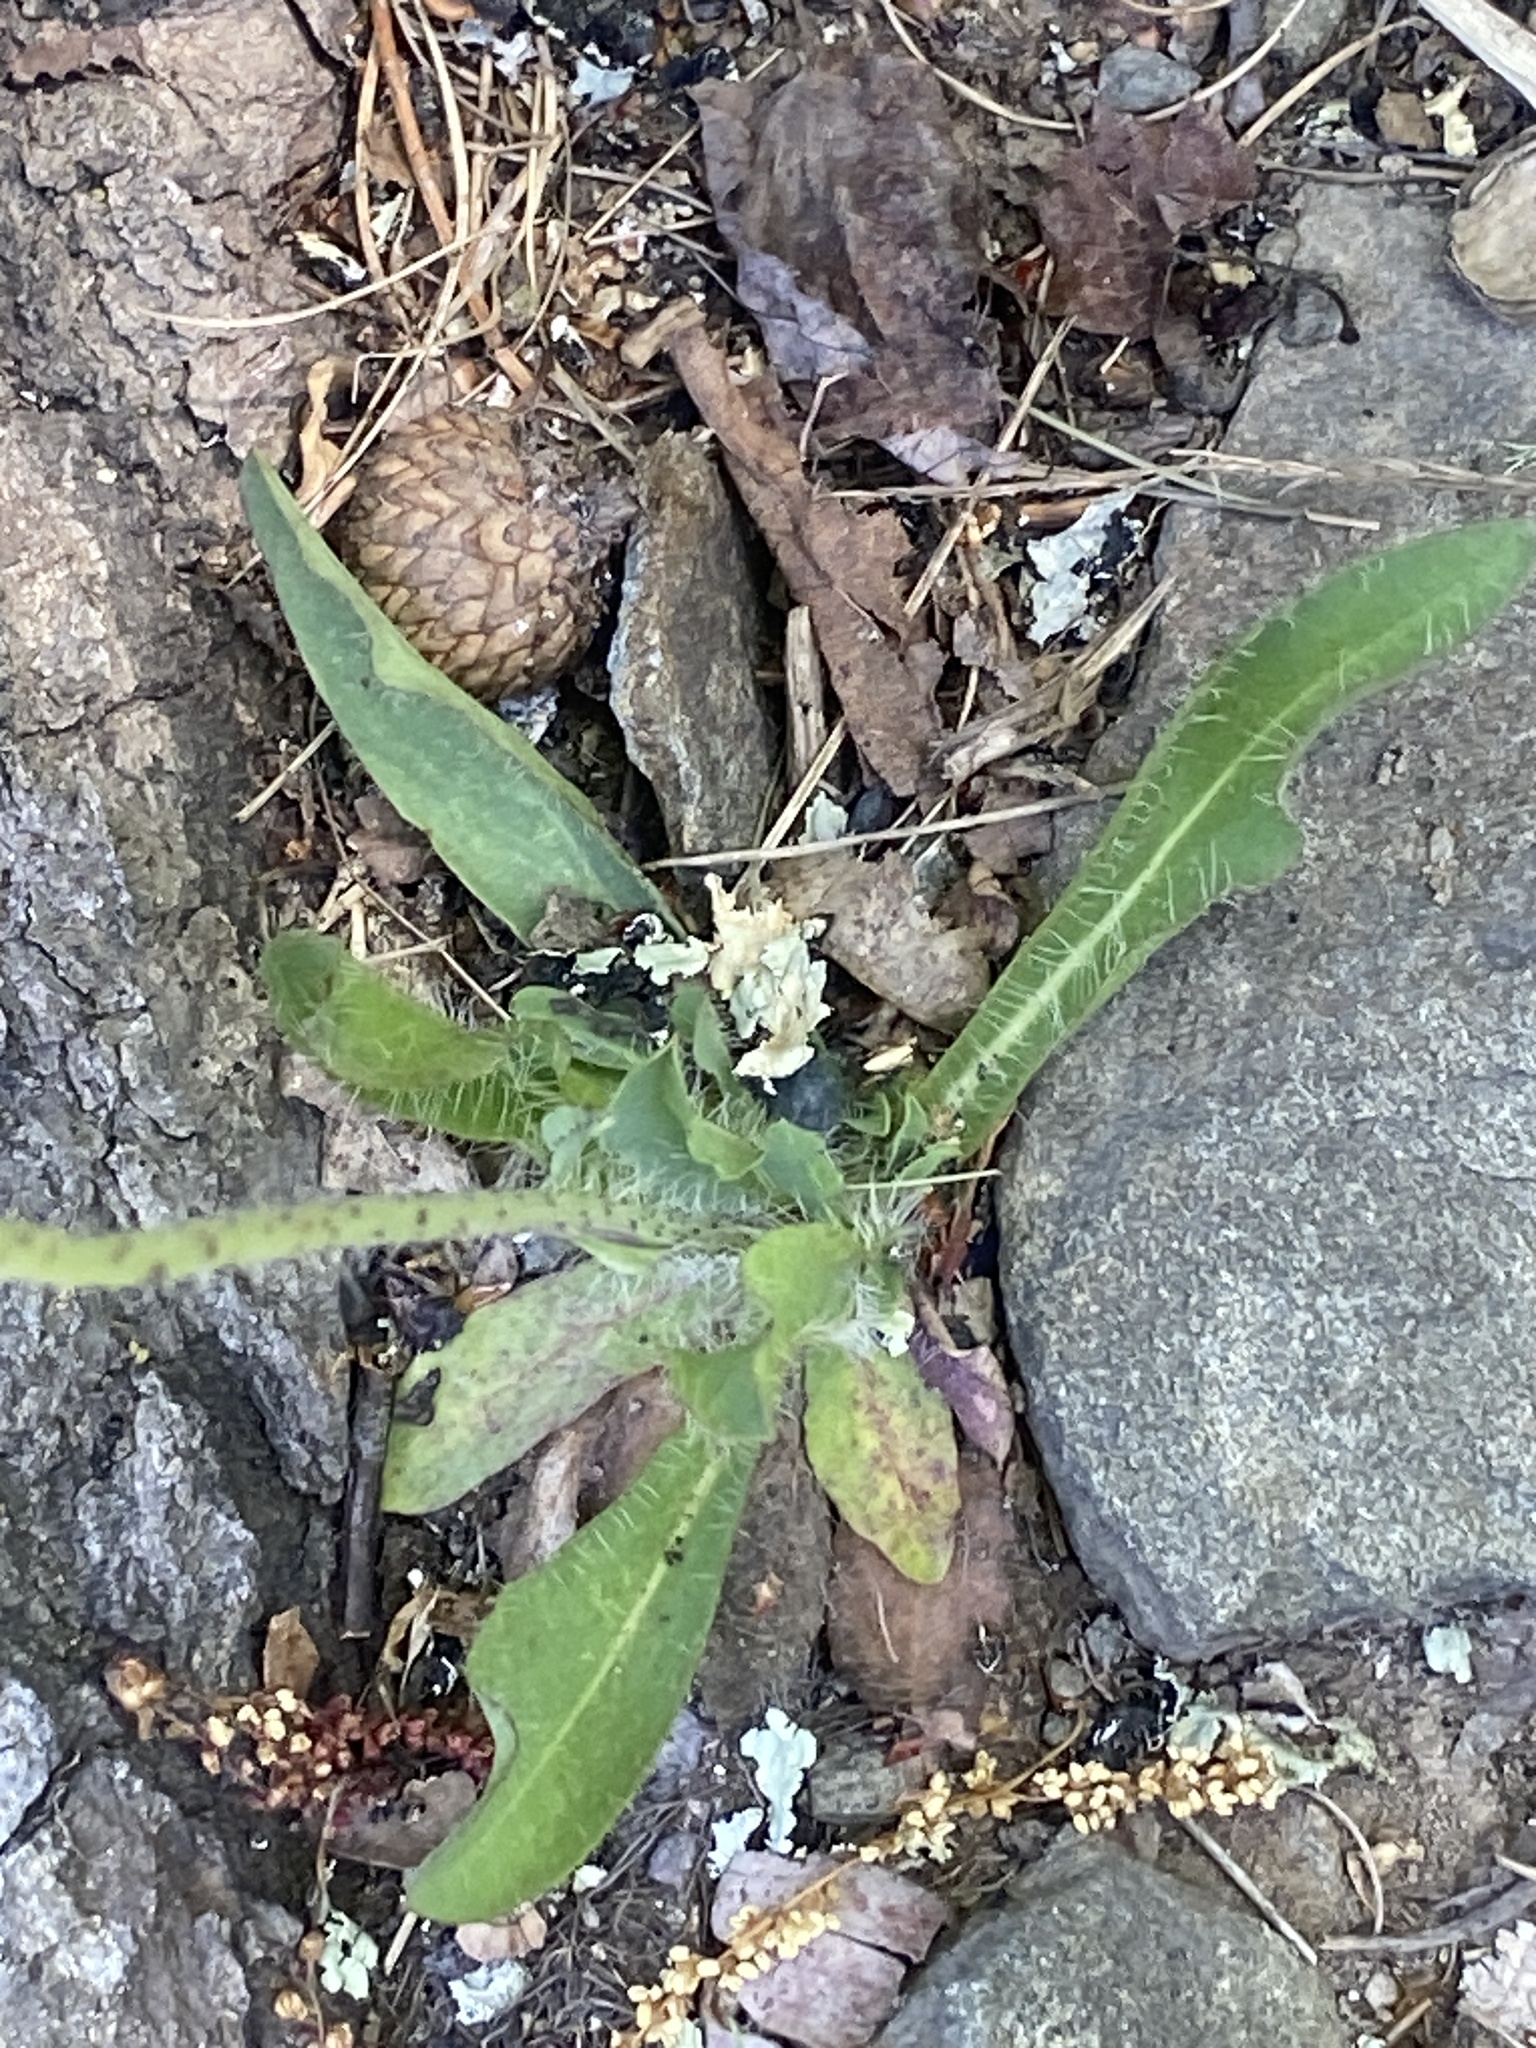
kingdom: Plantae
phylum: Tracheophyta
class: Magnoliopsida
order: Asterales
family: Asteraceae
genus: Pilosella
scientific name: Pilosella caespitosa
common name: Yellow fox-and-cubs
